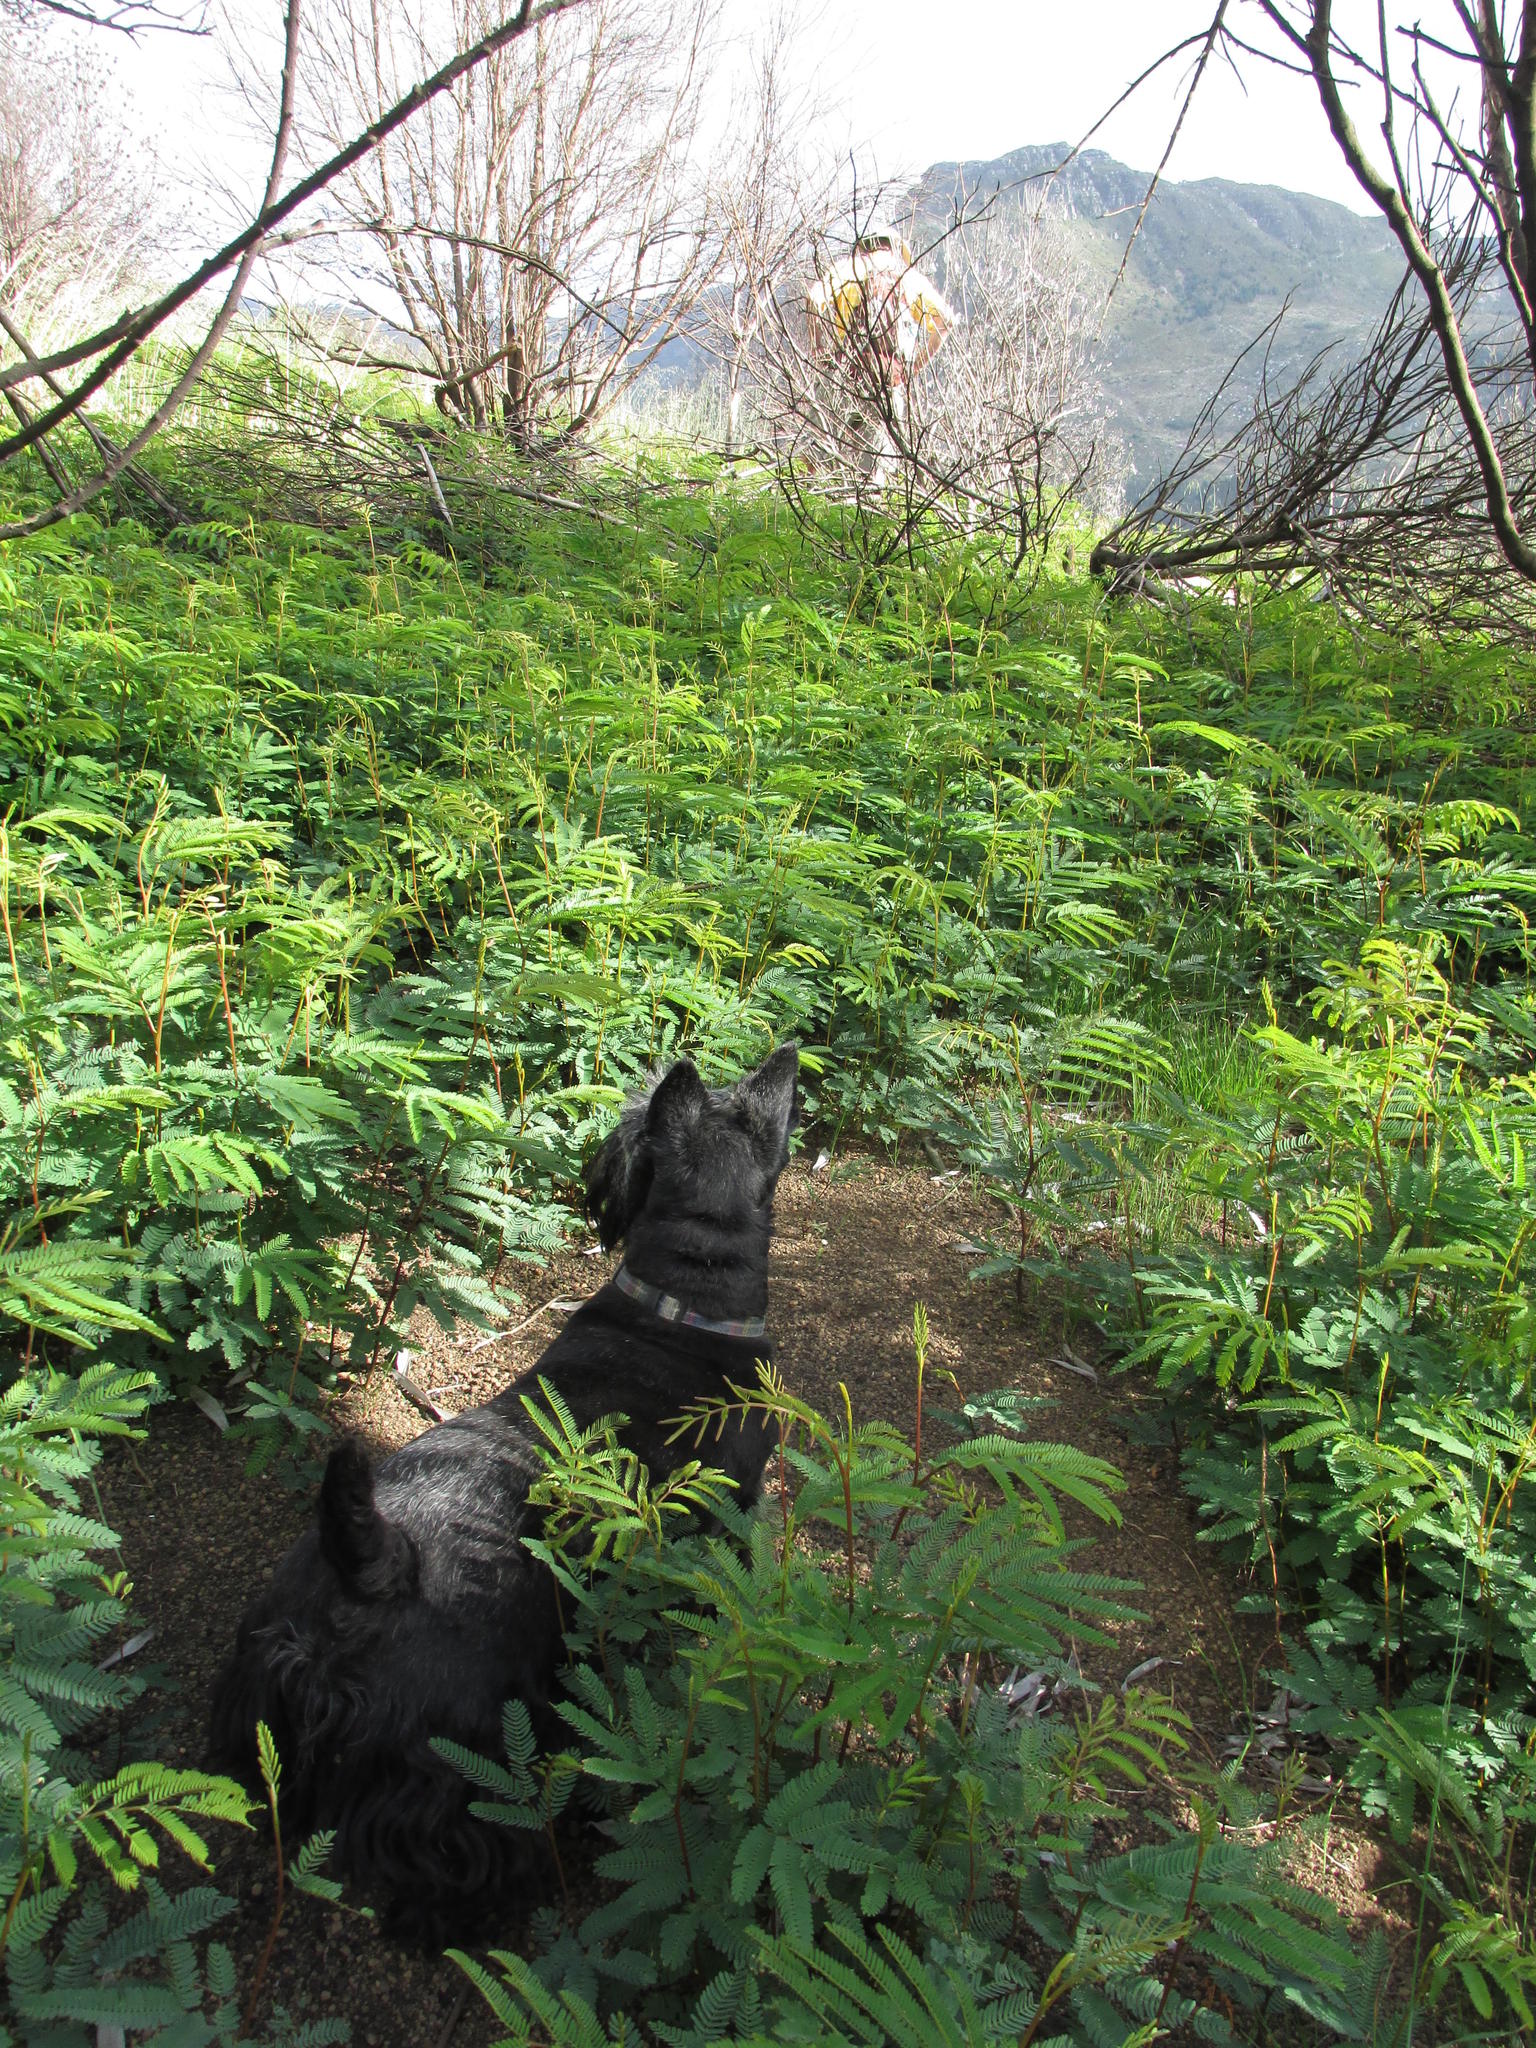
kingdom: Plantae
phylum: Tracheophyta
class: Magnoliopsida
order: Fabales
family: Fabaceae
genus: Paraserianthes
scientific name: Paraserianthes lophantha
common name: Plume albizia
